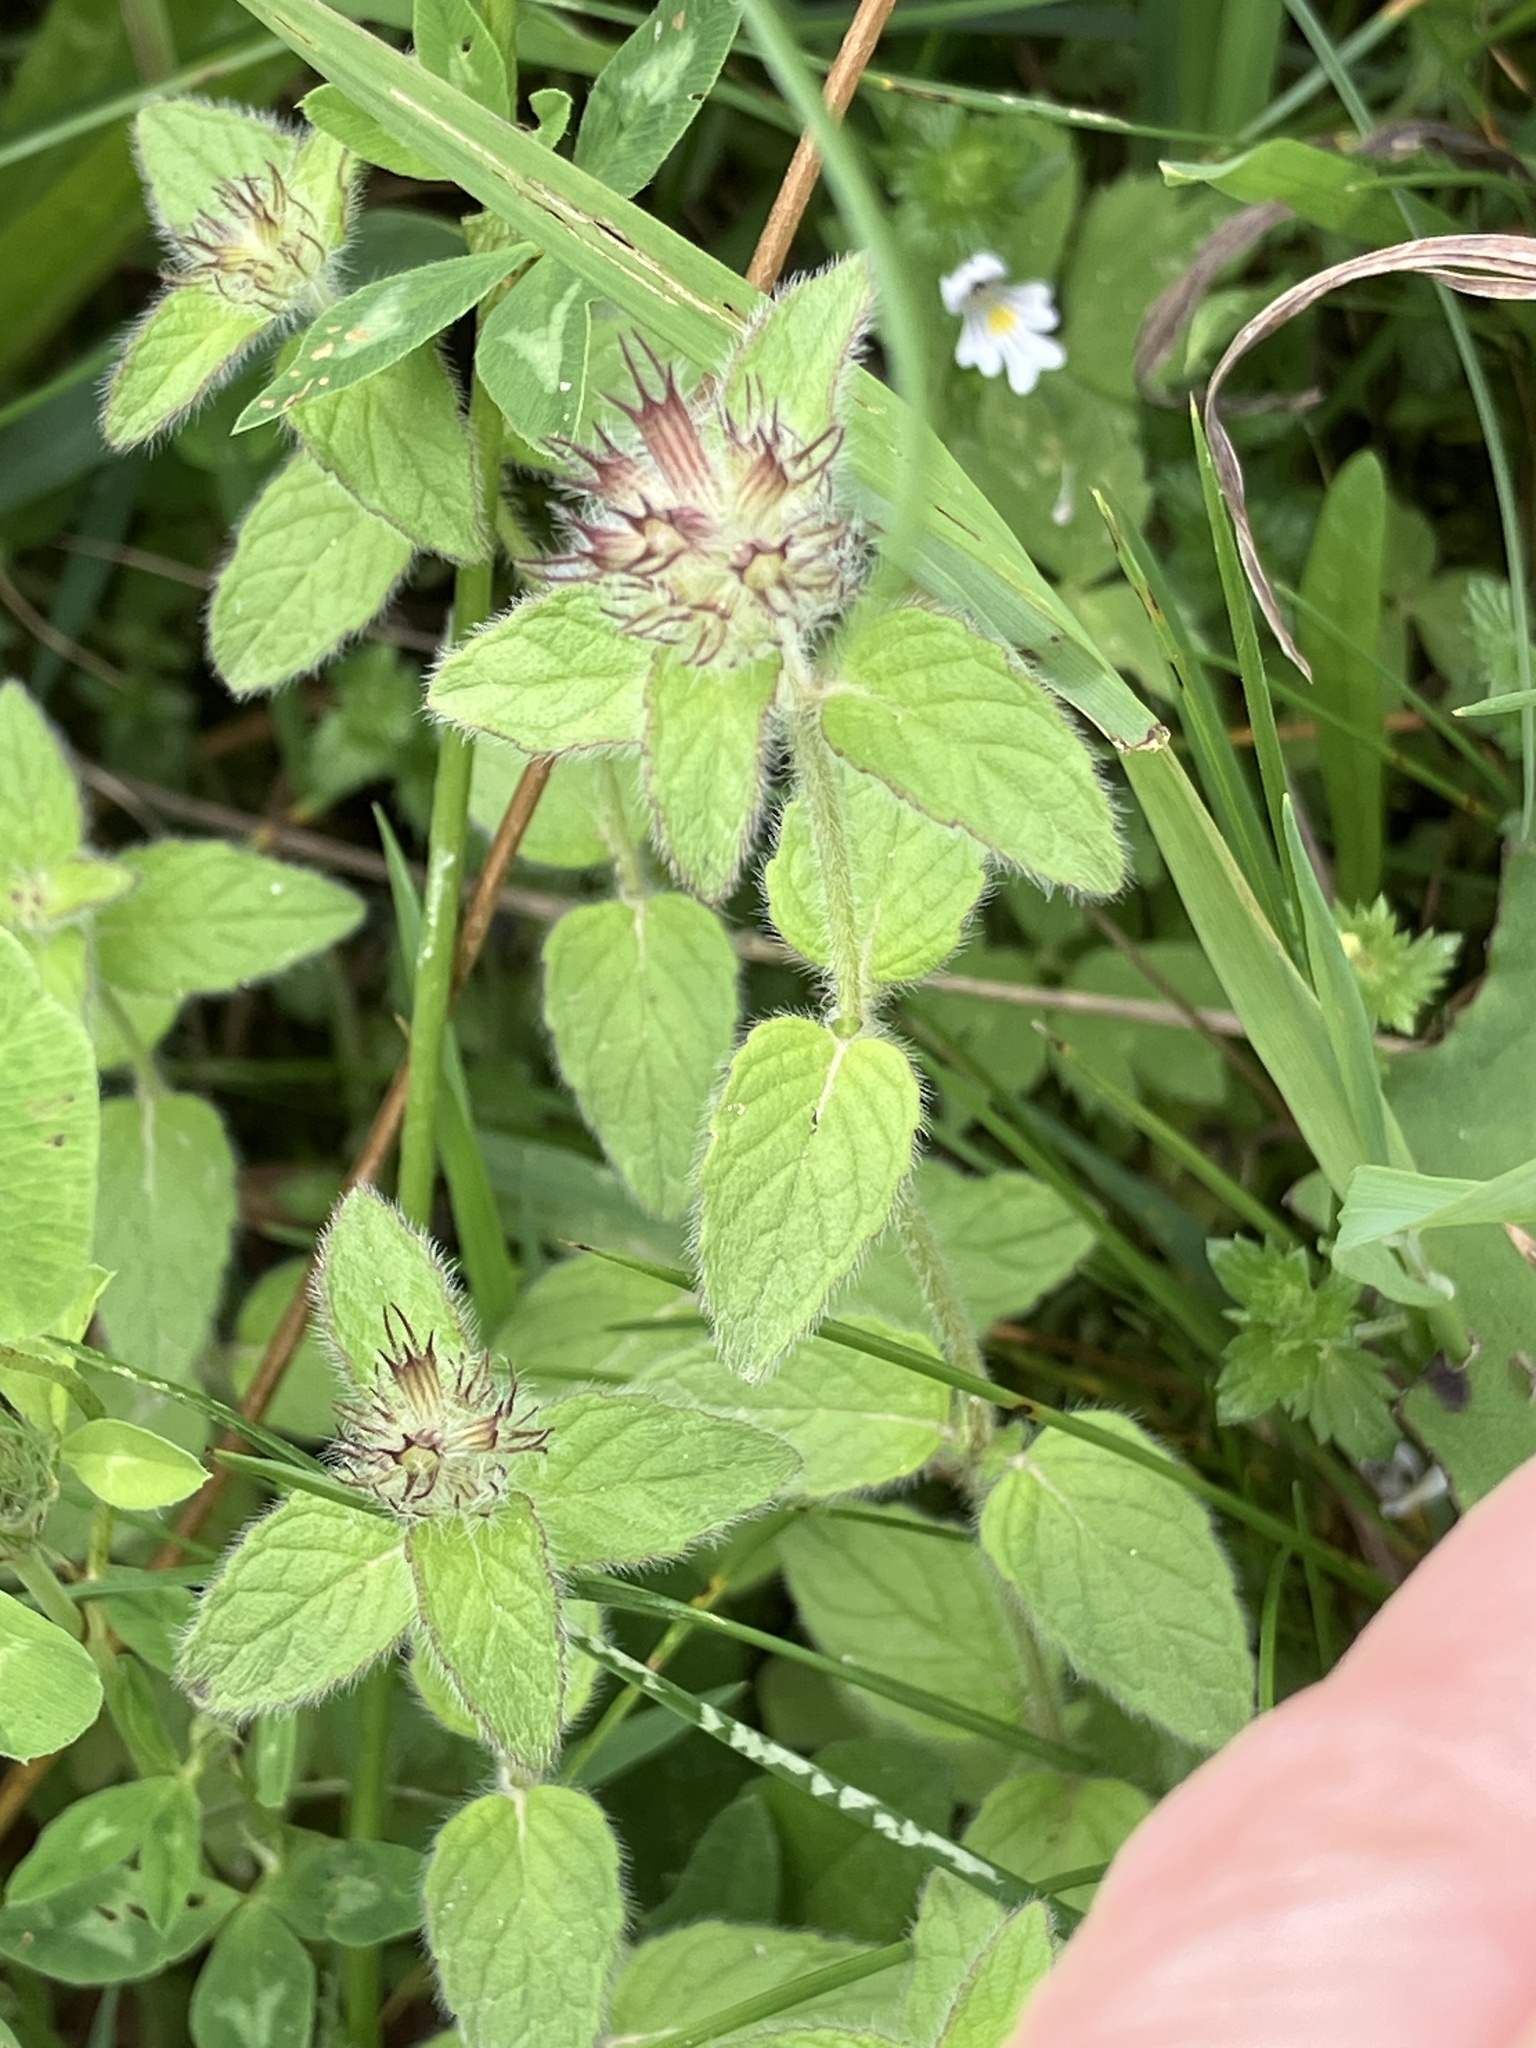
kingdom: Plantae
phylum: Tracheophyta
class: Magnoliopsida
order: Lamiales
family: Lamiaceae
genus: Clinopodium
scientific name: Clinopodium vulgare
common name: Wild basil
